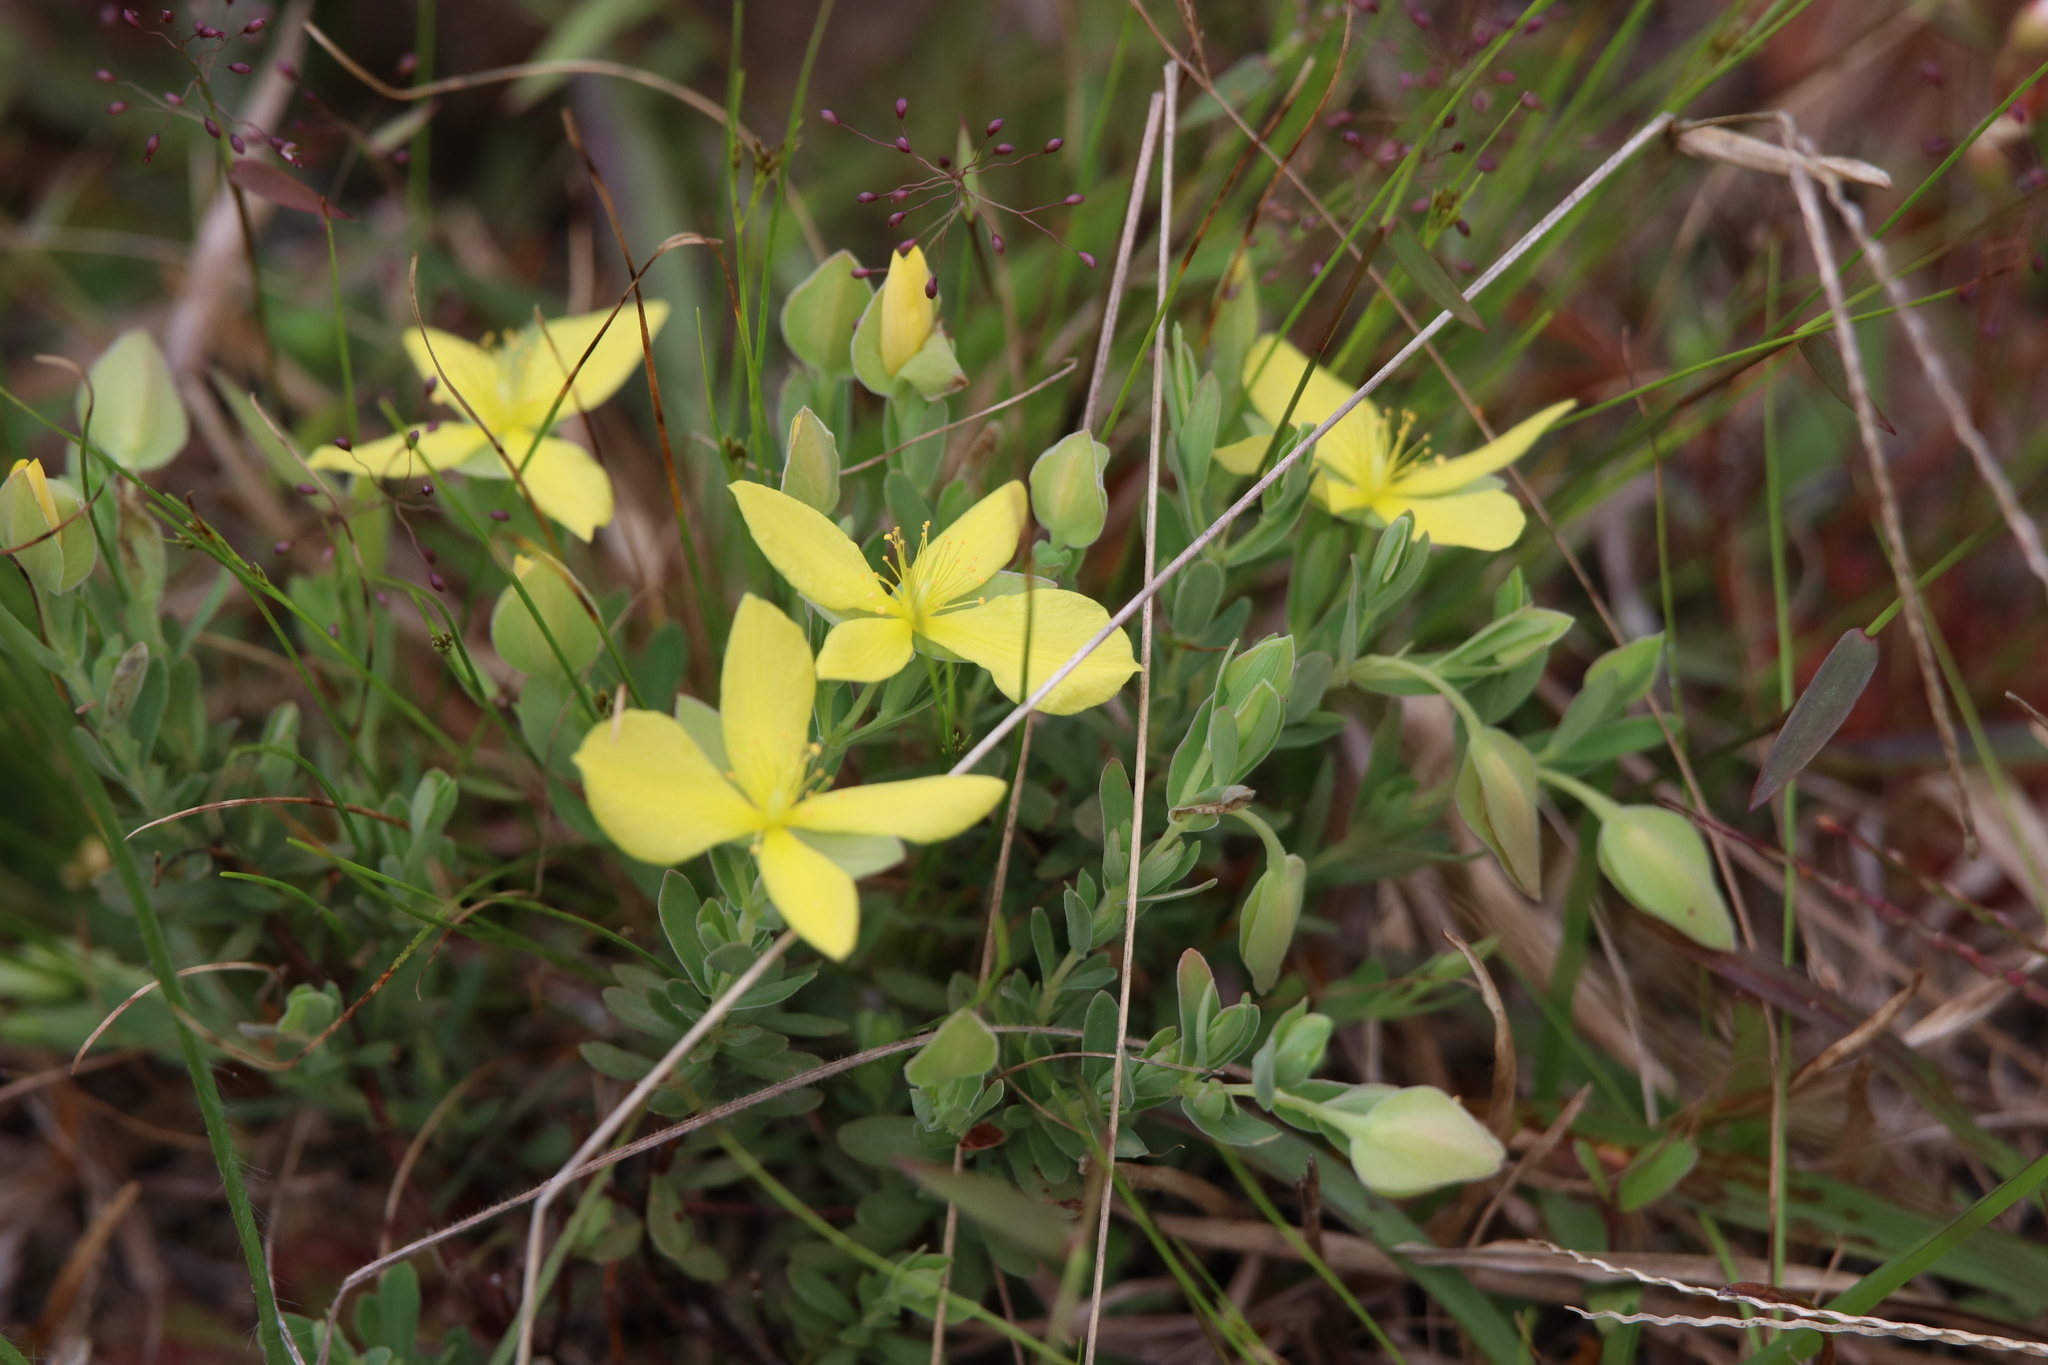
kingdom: Plantae
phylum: Tracheophyta
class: Magnoliopsida
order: Malpighiales
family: Hypericaceae
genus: Hypericum
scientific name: Hypericum suffruticosum
